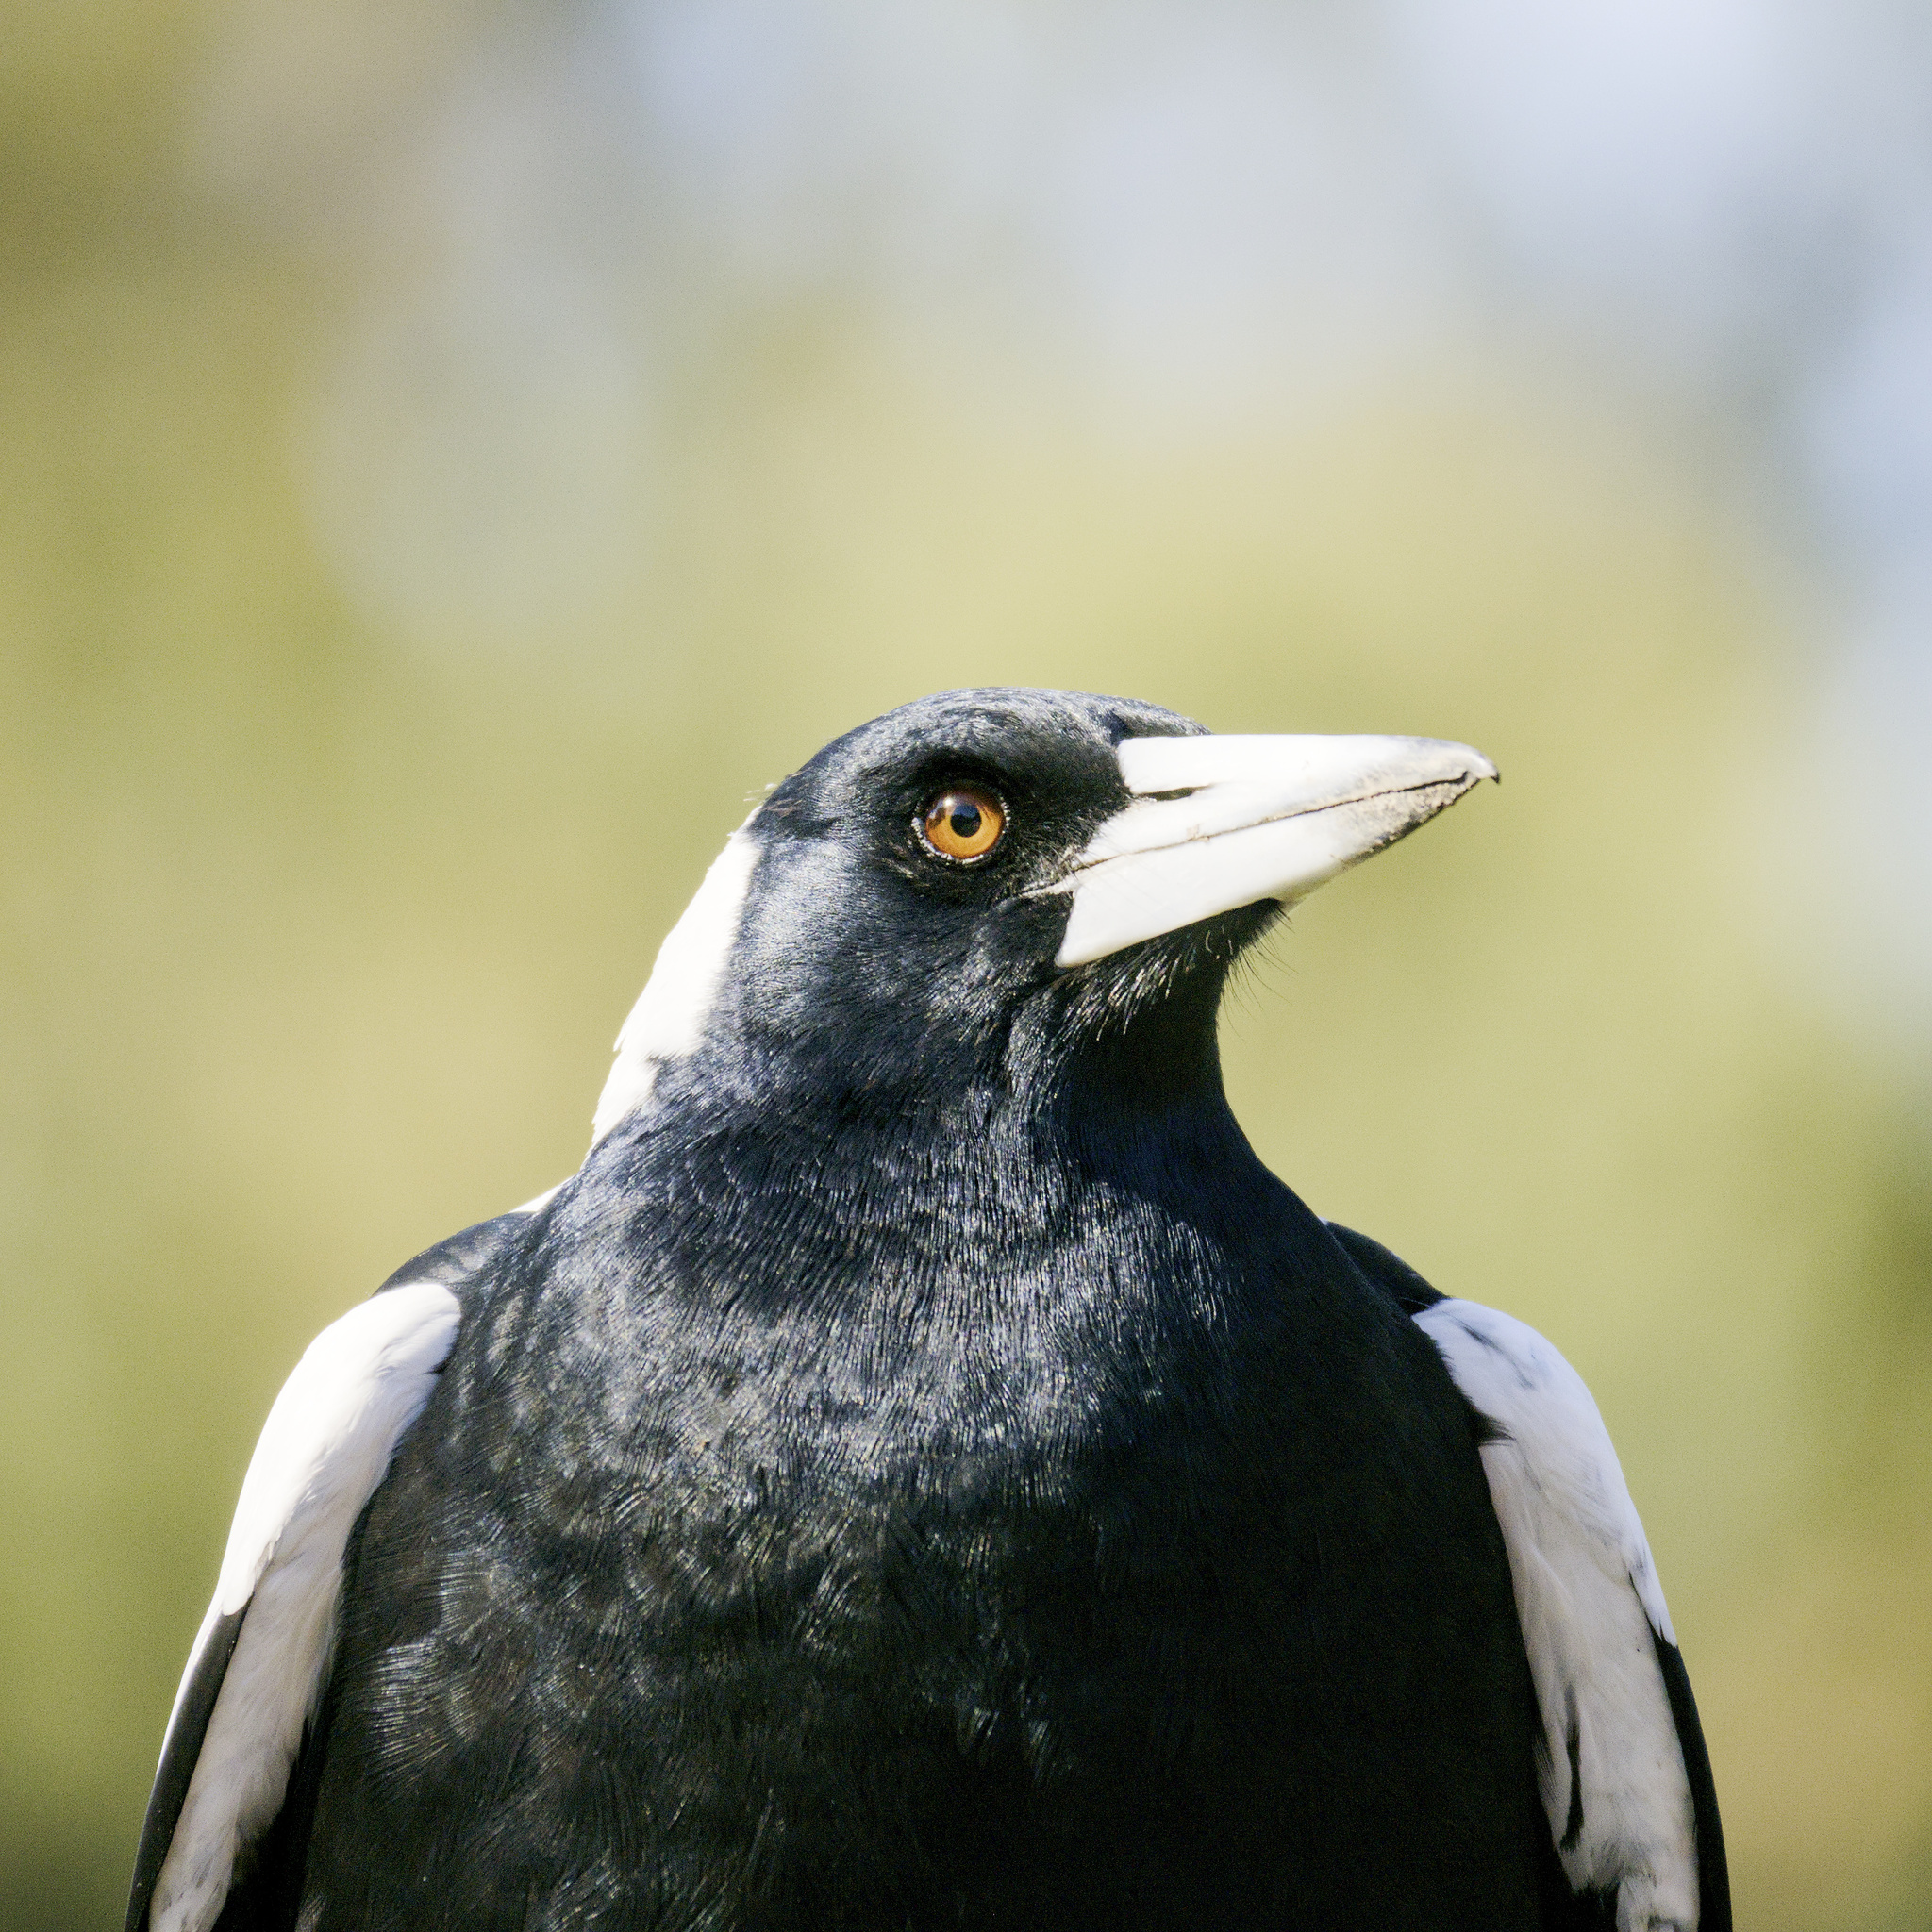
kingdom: Animalia
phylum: Chordata
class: Aves
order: Passeriformes
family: Cracticidae
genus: Gymnorhina
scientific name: Gymnorhina tibicen
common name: Australian magpie
